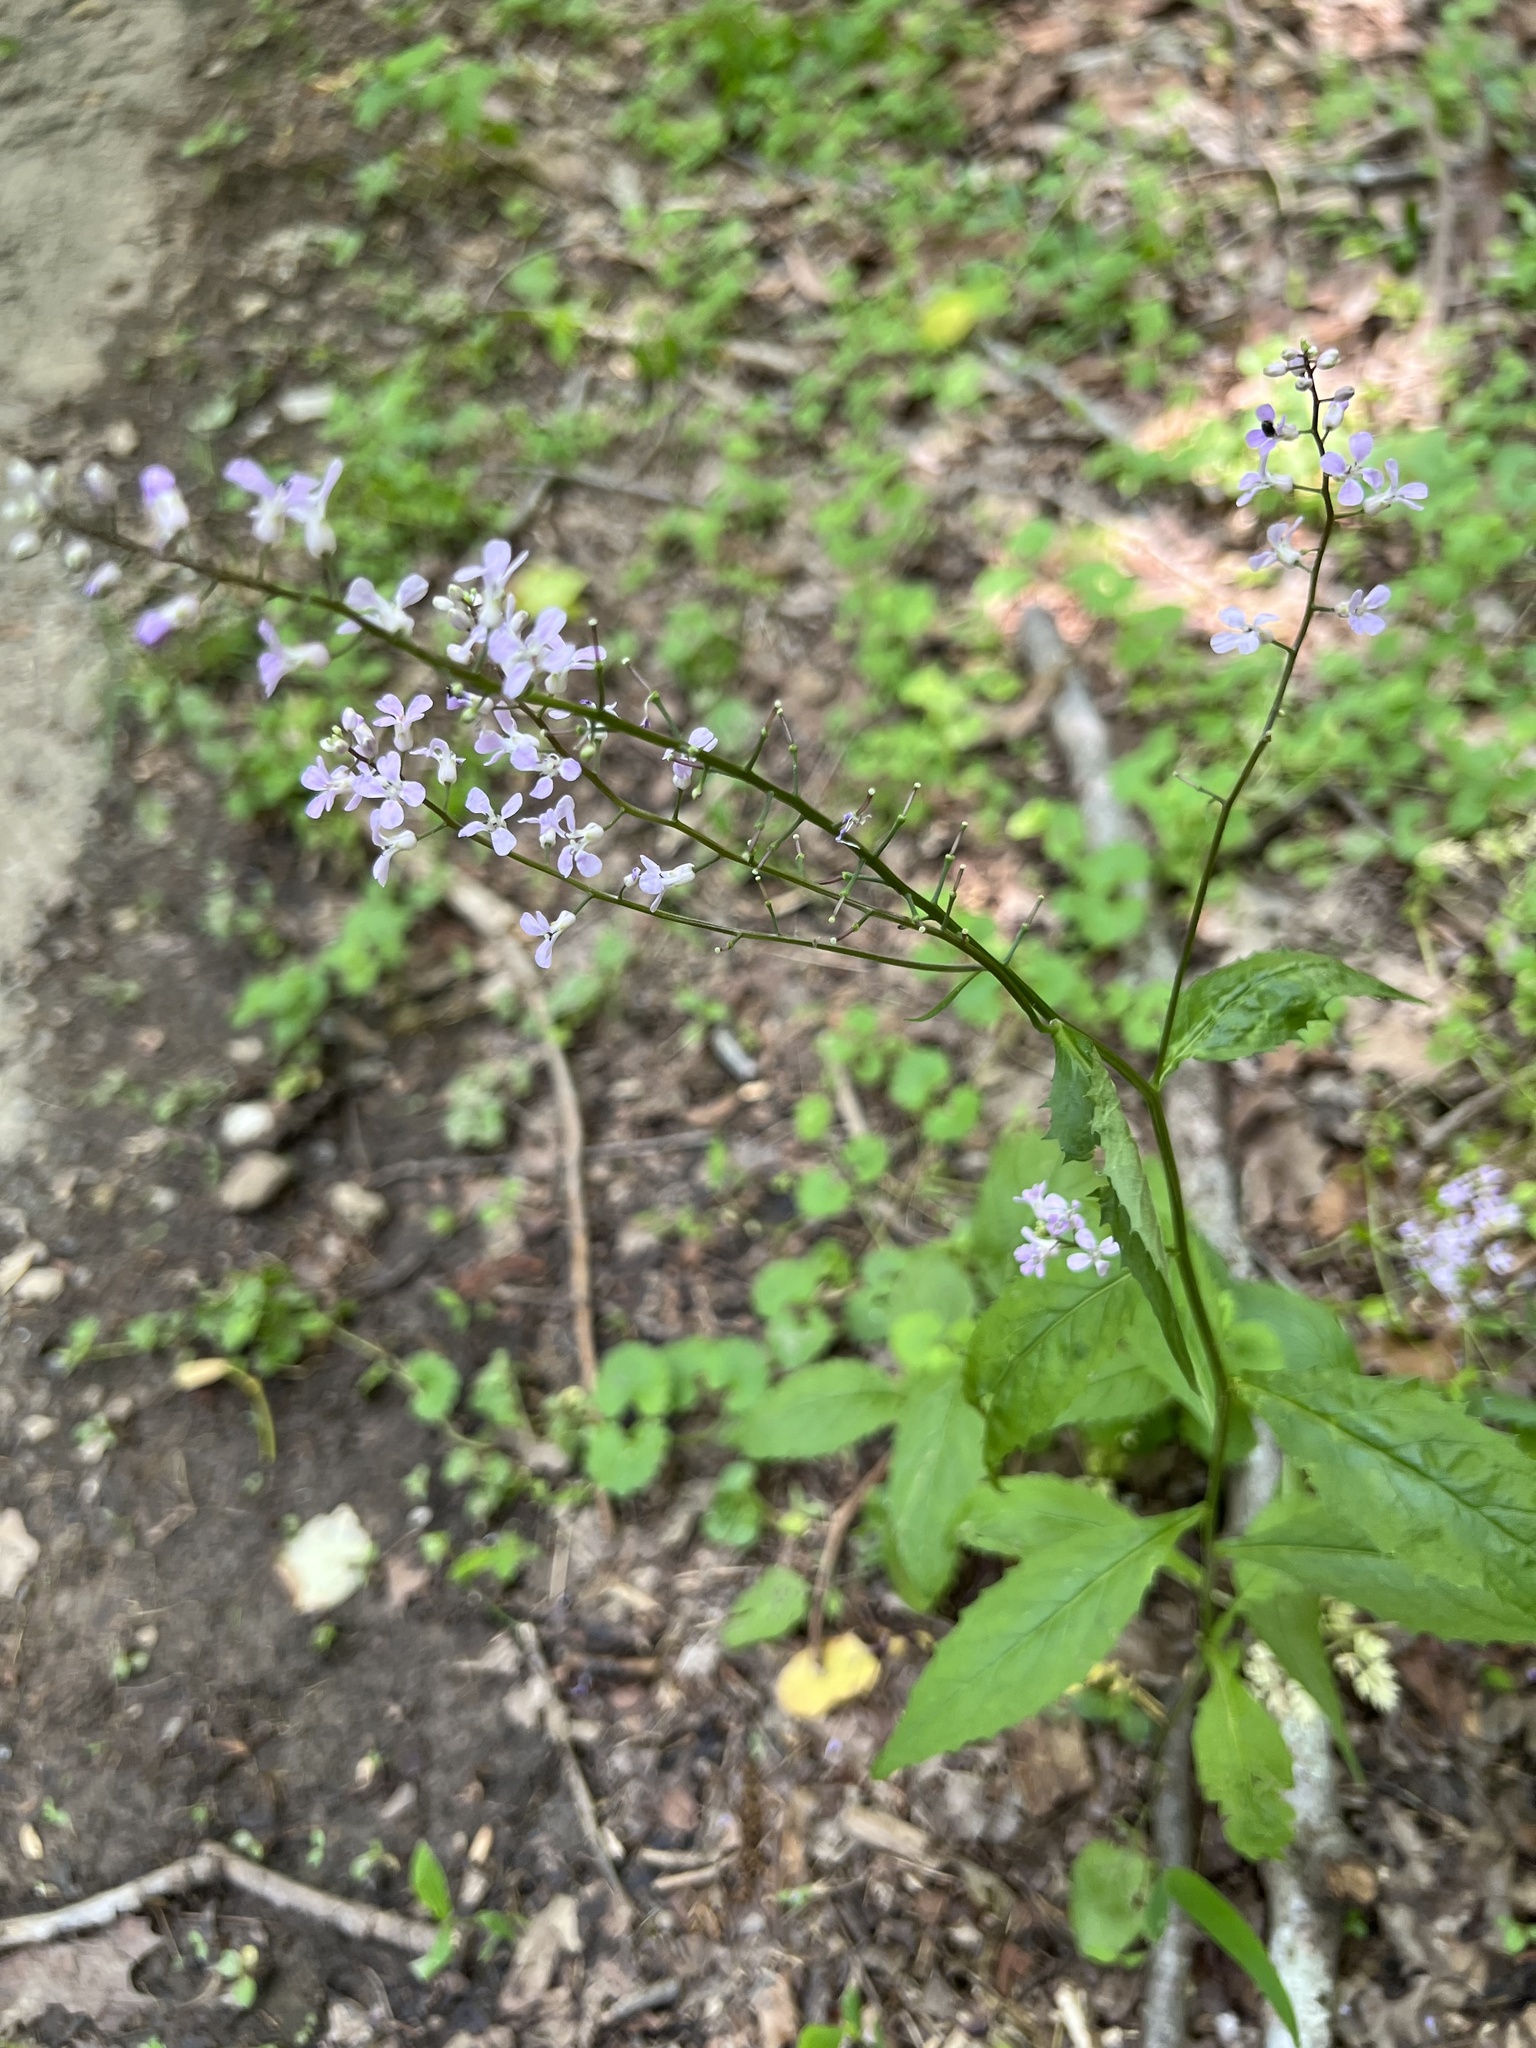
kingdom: Plantae
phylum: Tracheophyta
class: Magnoliopsida
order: Brassicales
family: Brassicaceae
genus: Iodanthus
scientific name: Iodanthus pinnatifidus
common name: Violet rocket
